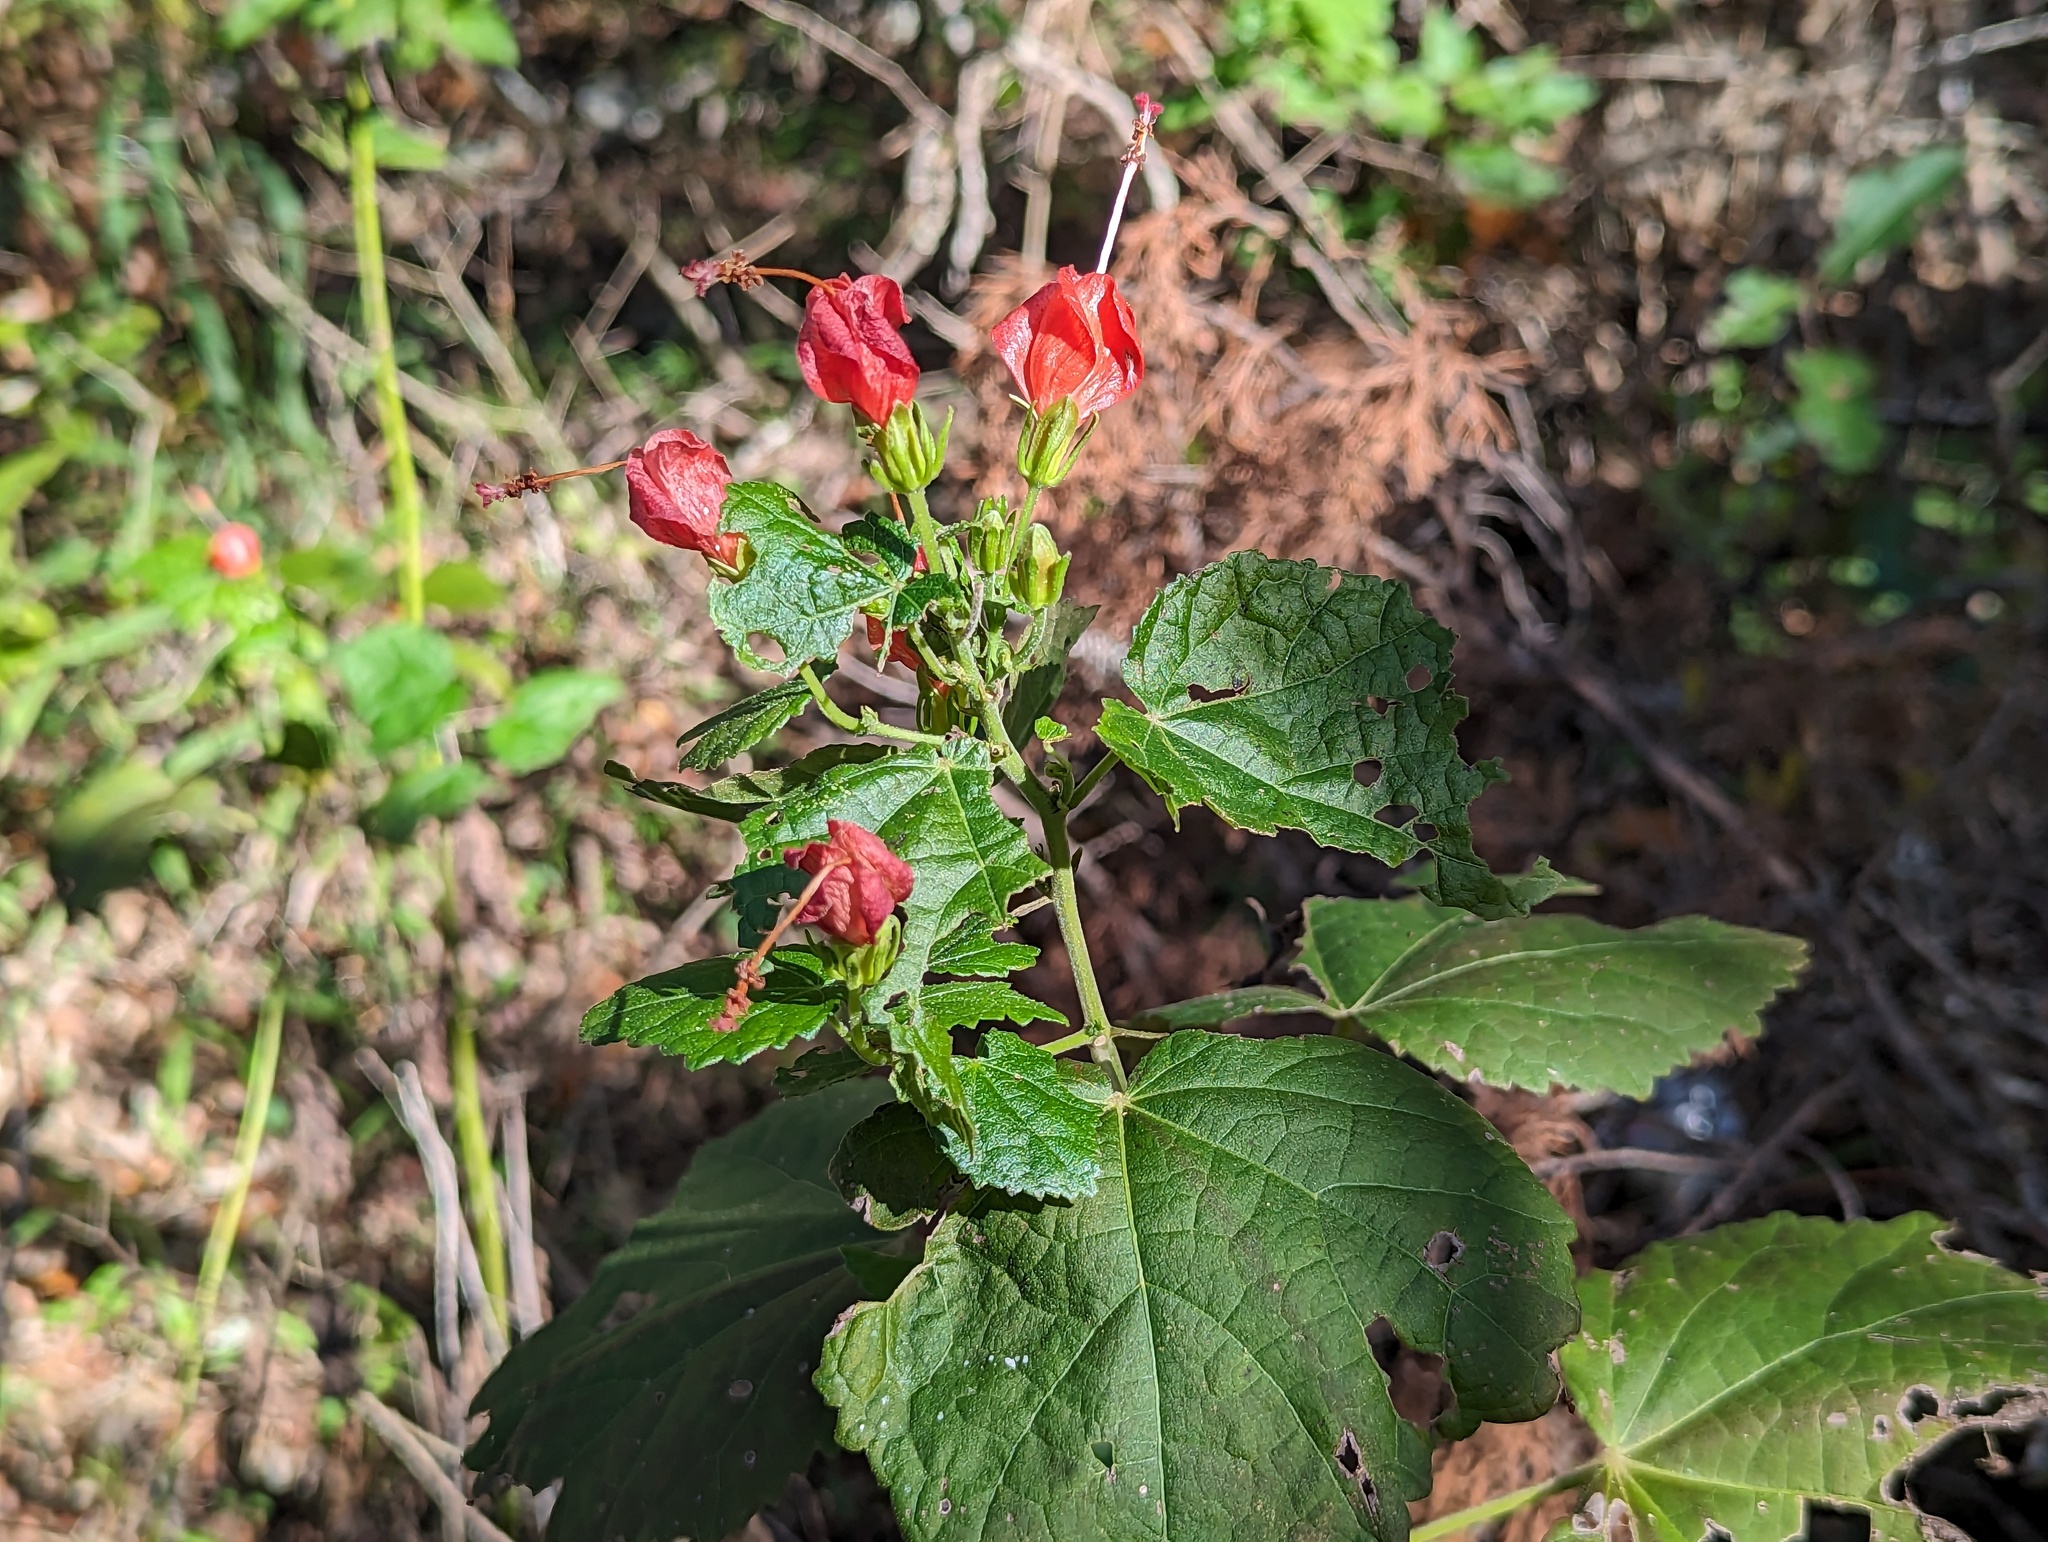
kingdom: Plantae
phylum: Tracheophyta
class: Magnoliopsida
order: Malvales
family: Malvaceae
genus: Malvaviscus
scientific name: Malvaviscus arboreus
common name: Wax mallow
